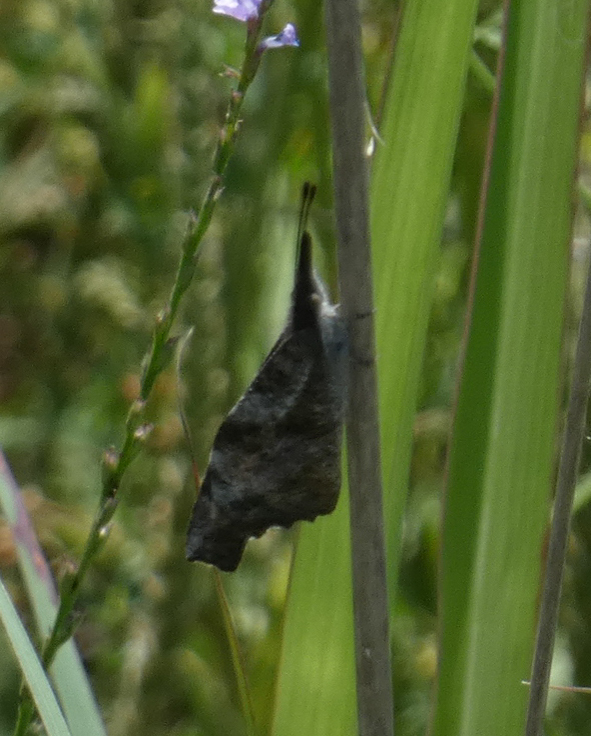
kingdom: Animalia
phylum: Arthropoda
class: Insecta
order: Lepidoptera
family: Nymphalidae
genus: Libytheana
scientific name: Libytheana carinenta
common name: American snout
